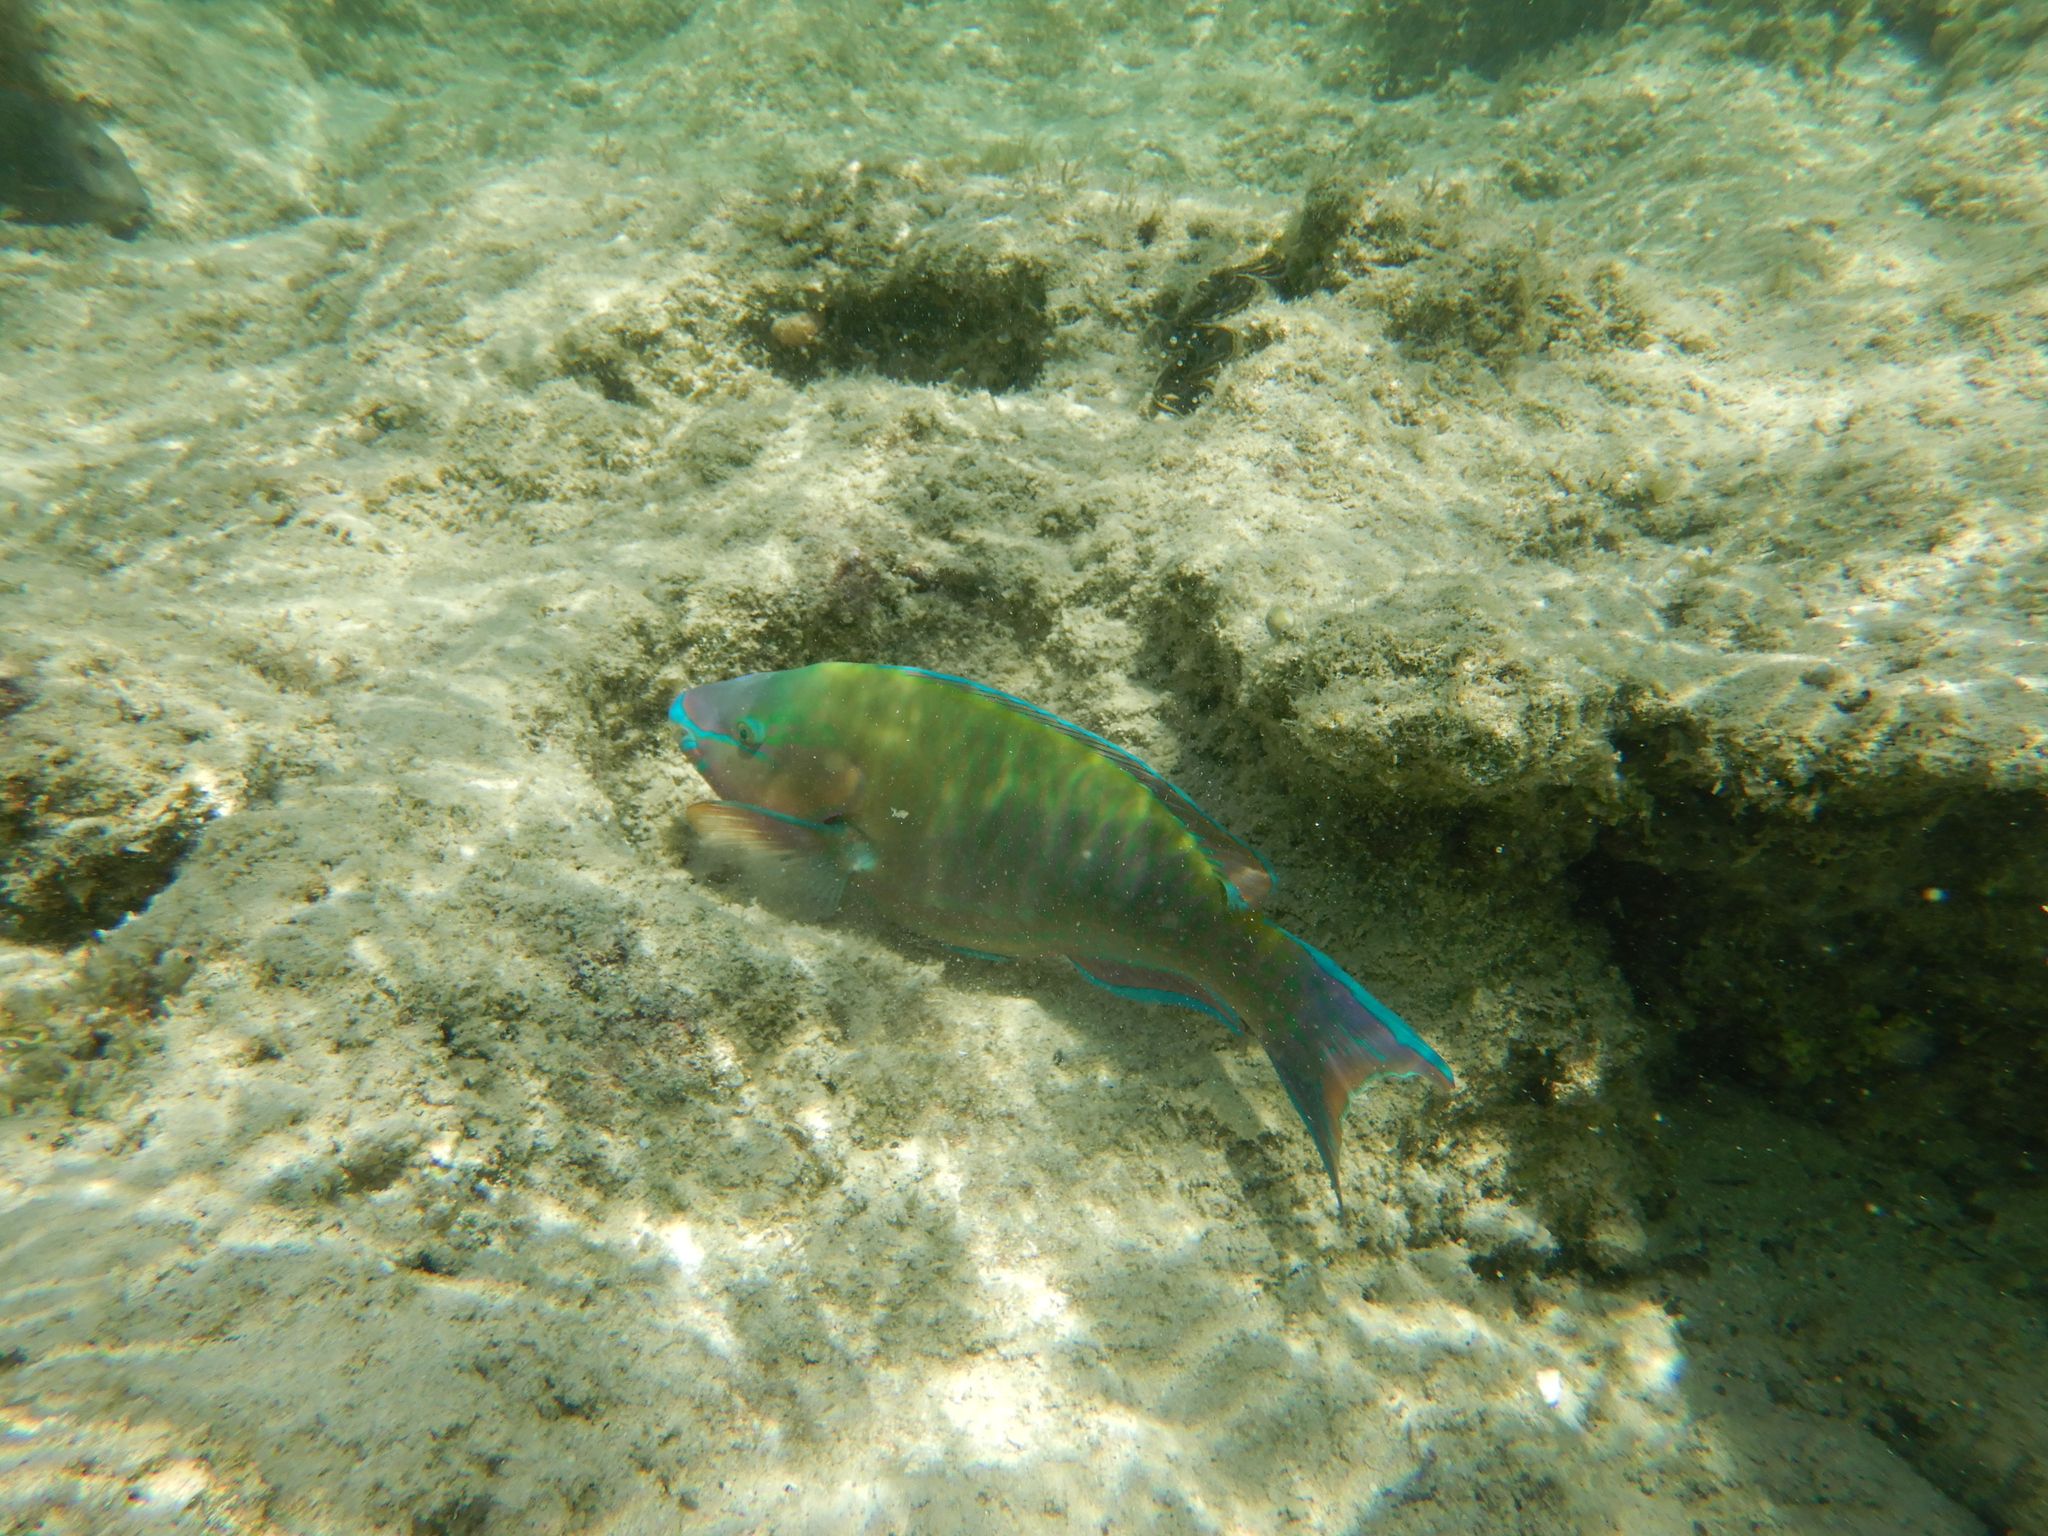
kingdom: Animalia
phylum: Chordata
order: Perciformes
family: Scaridae
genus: Scarus
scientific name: Scarus psittacus
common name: Palenose parrotfish
